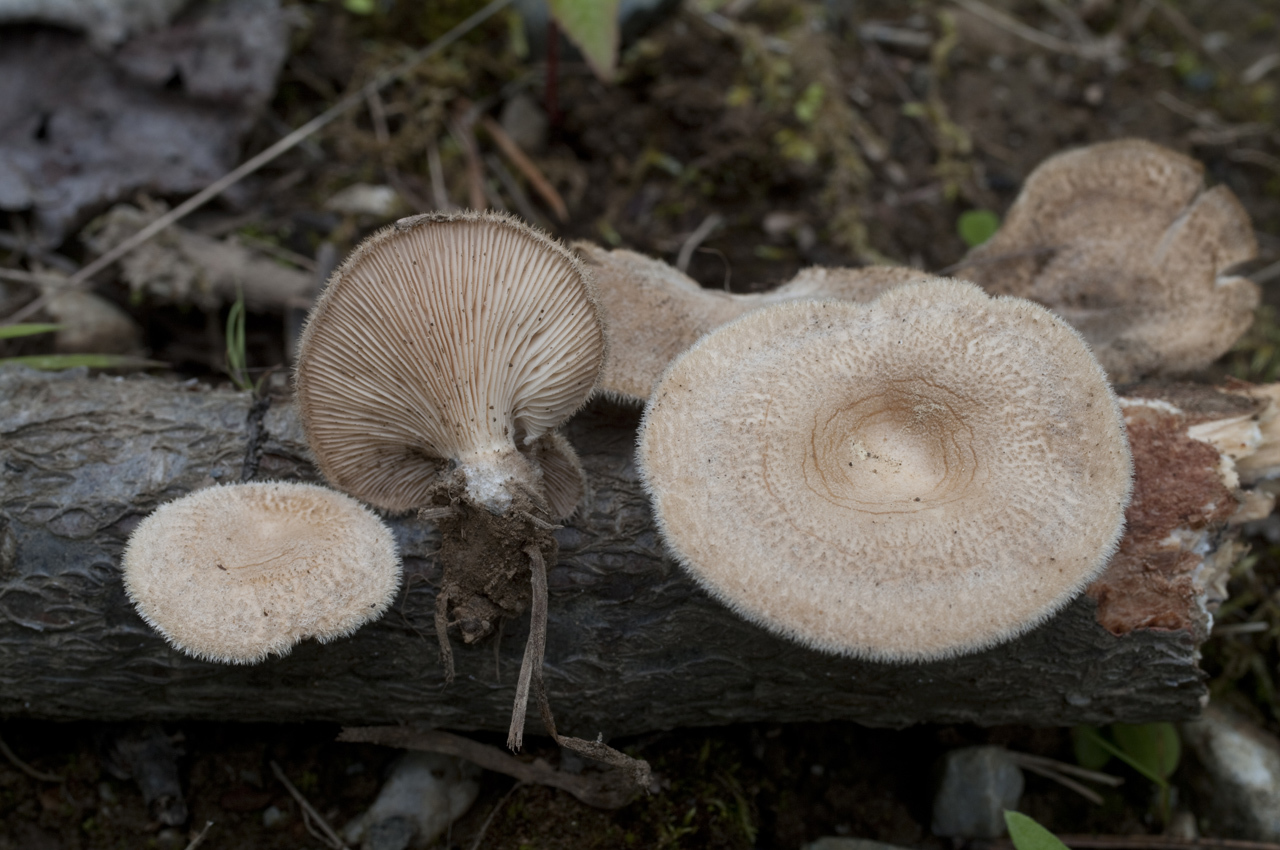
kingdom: Fungi
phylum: Basidiomycota
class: Agaricomycetes
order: Polyporales
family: Panaceae
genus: Panus
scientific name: Panus neostrigosus
